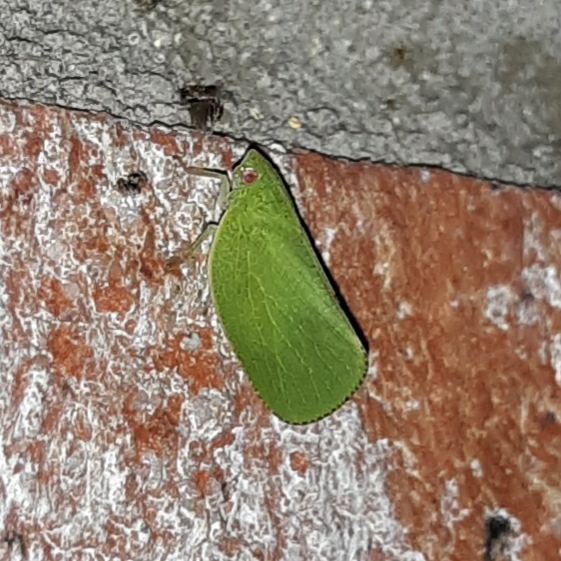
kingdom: Animalia
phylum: Arthropoda
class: Insecta
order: Hemiptera
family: Acanaloniidae
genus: Acanalonia
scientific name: Acanalonia conica
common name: Green cone-headed planthopper
